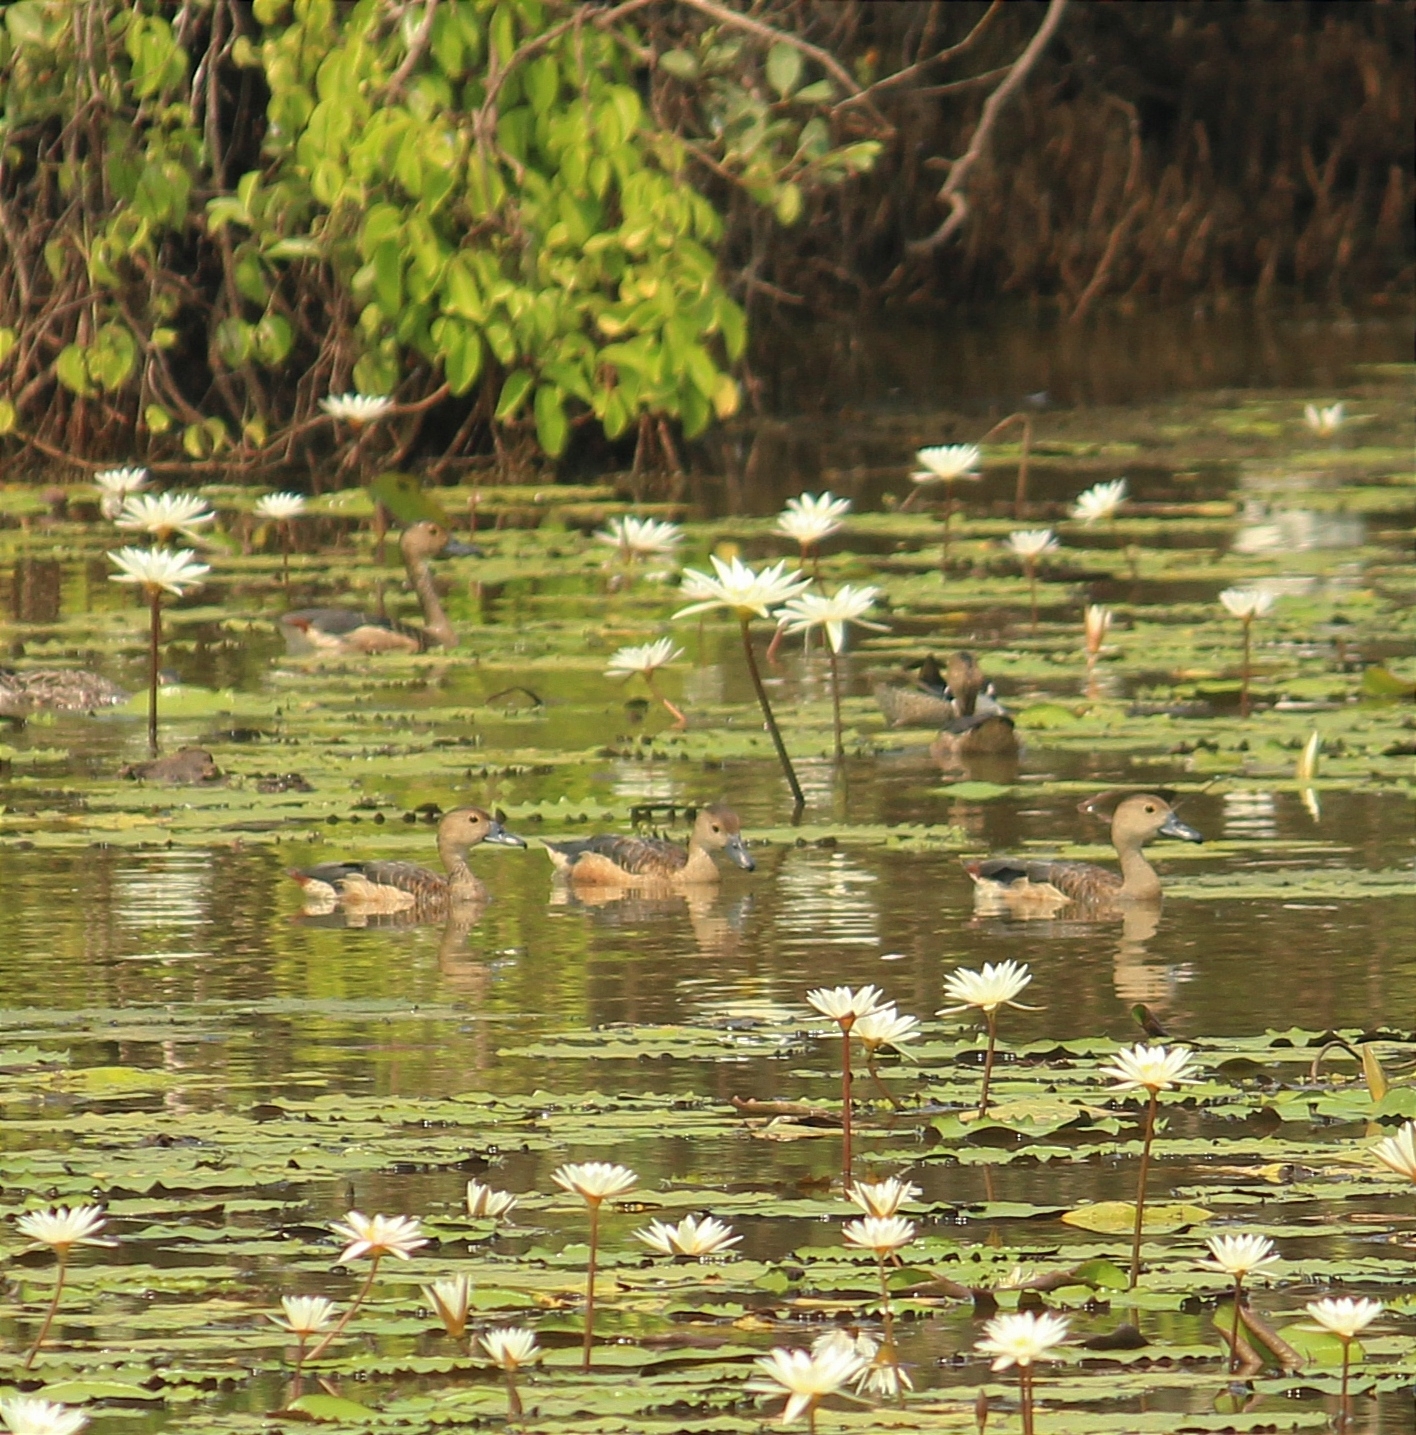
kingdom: Animalia
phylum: Chordata
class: Aves
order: Anseriformes
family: Anatidae
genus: Dendrocygna
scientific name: Dendrocygna javanica
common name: Lesser whistling-duck
